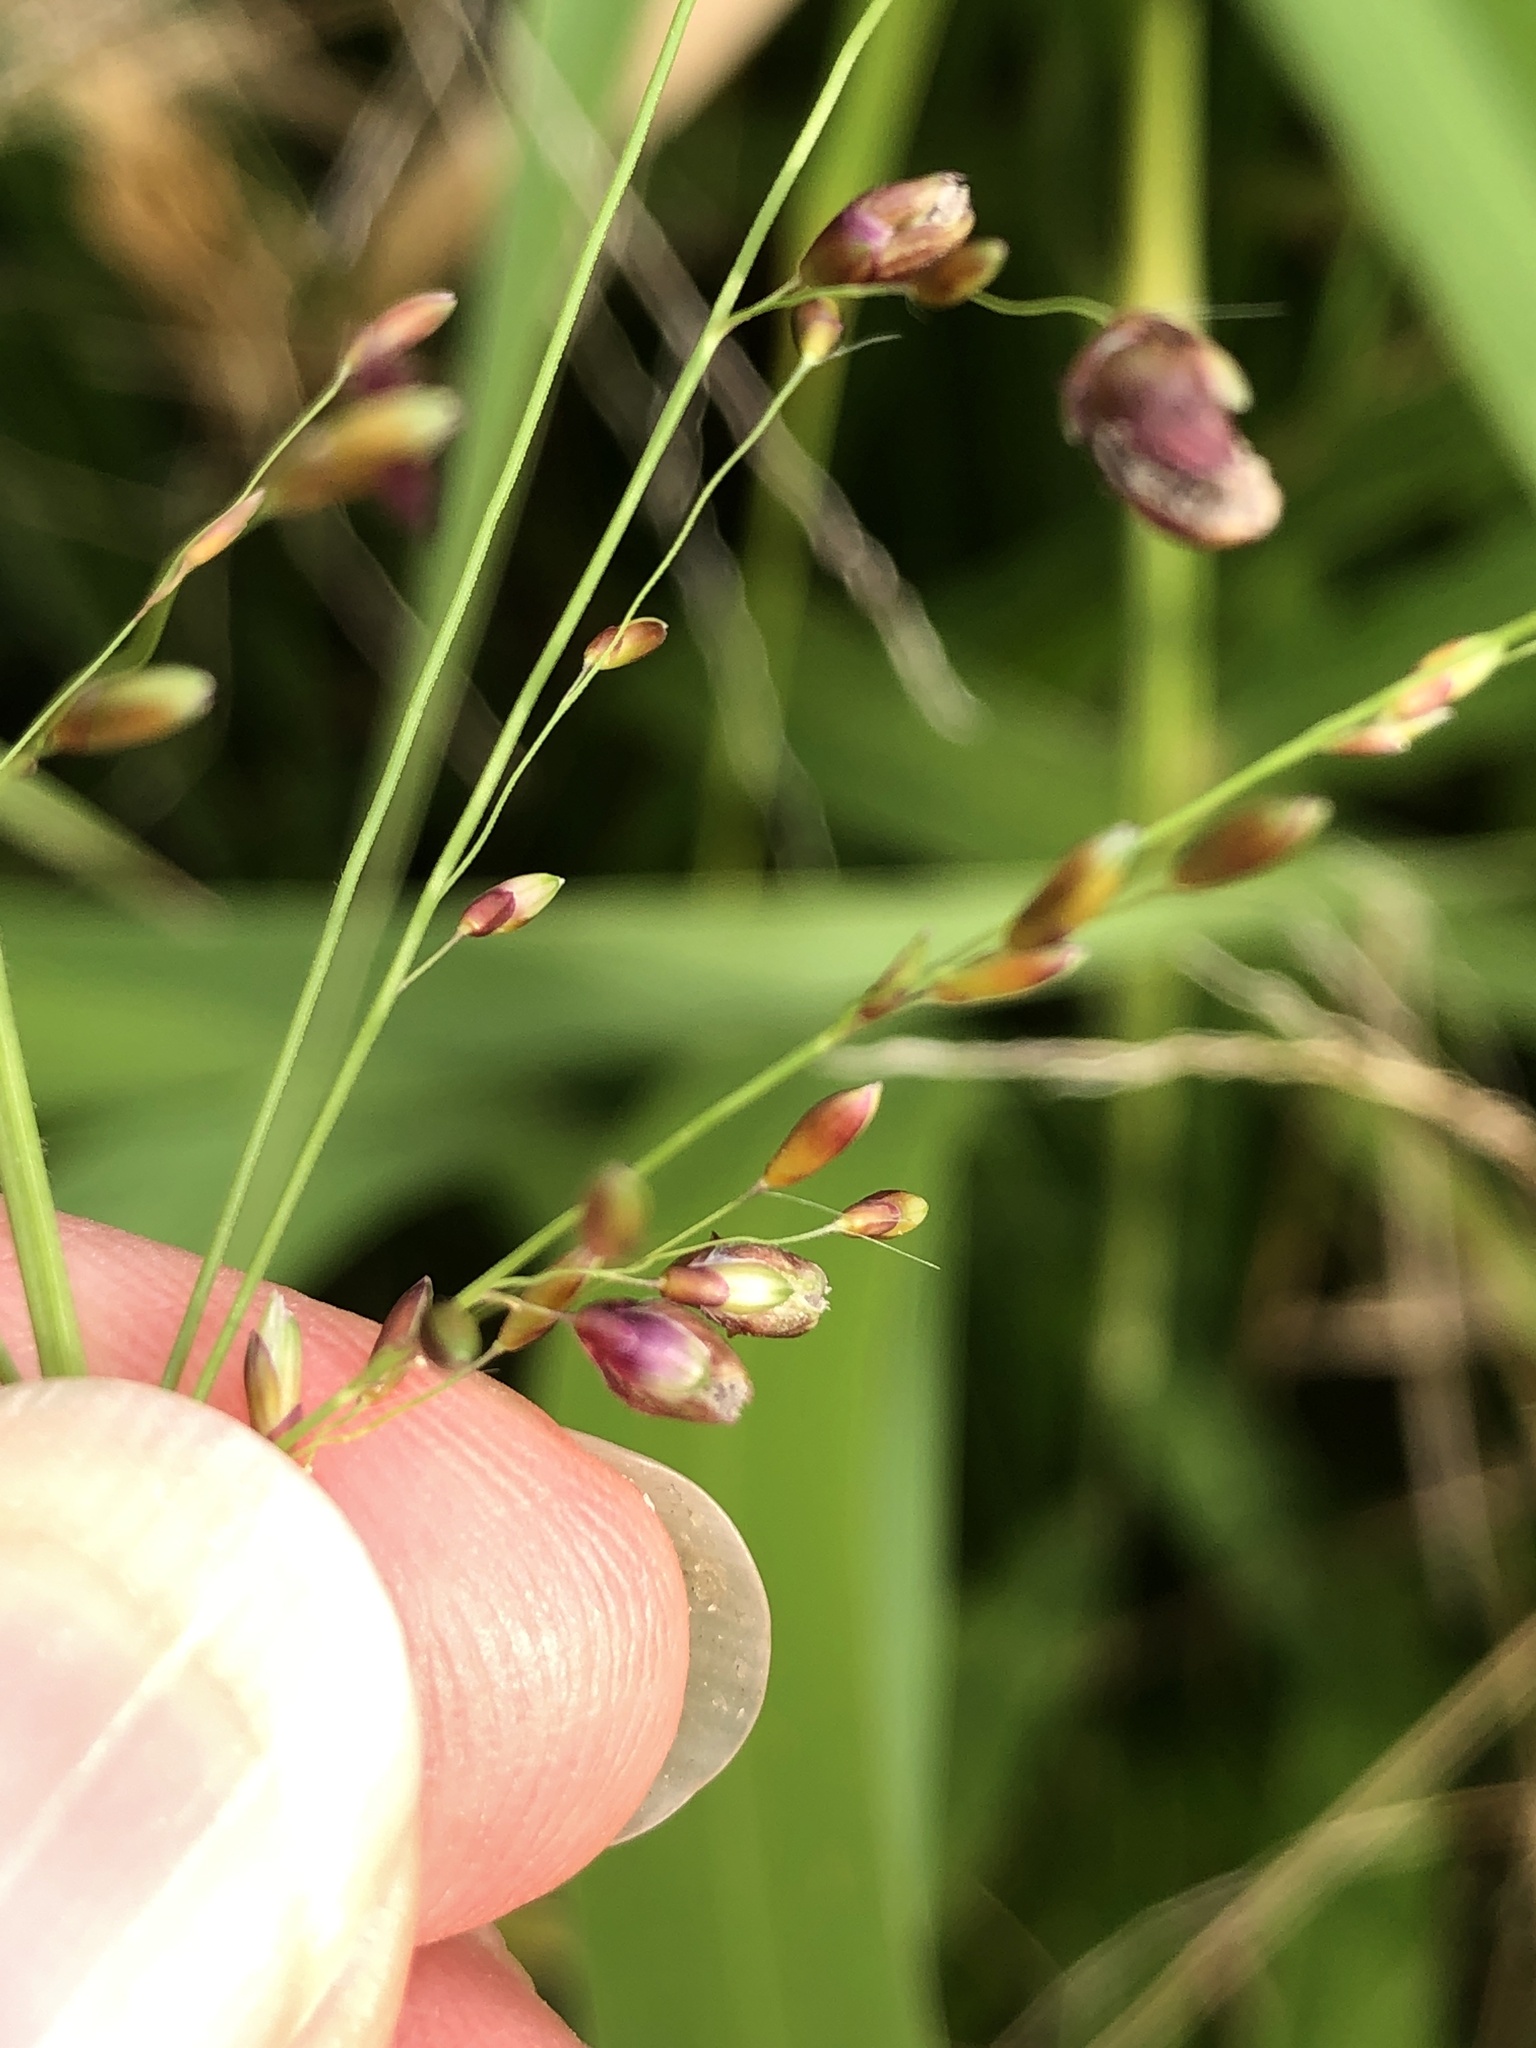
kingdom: Plantae
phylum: Tracheophyta
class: Liliopsida
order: Poales
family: Poaceae
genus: Megathyrsus
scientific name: Megathyrsus maximus
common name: Guineagrass
